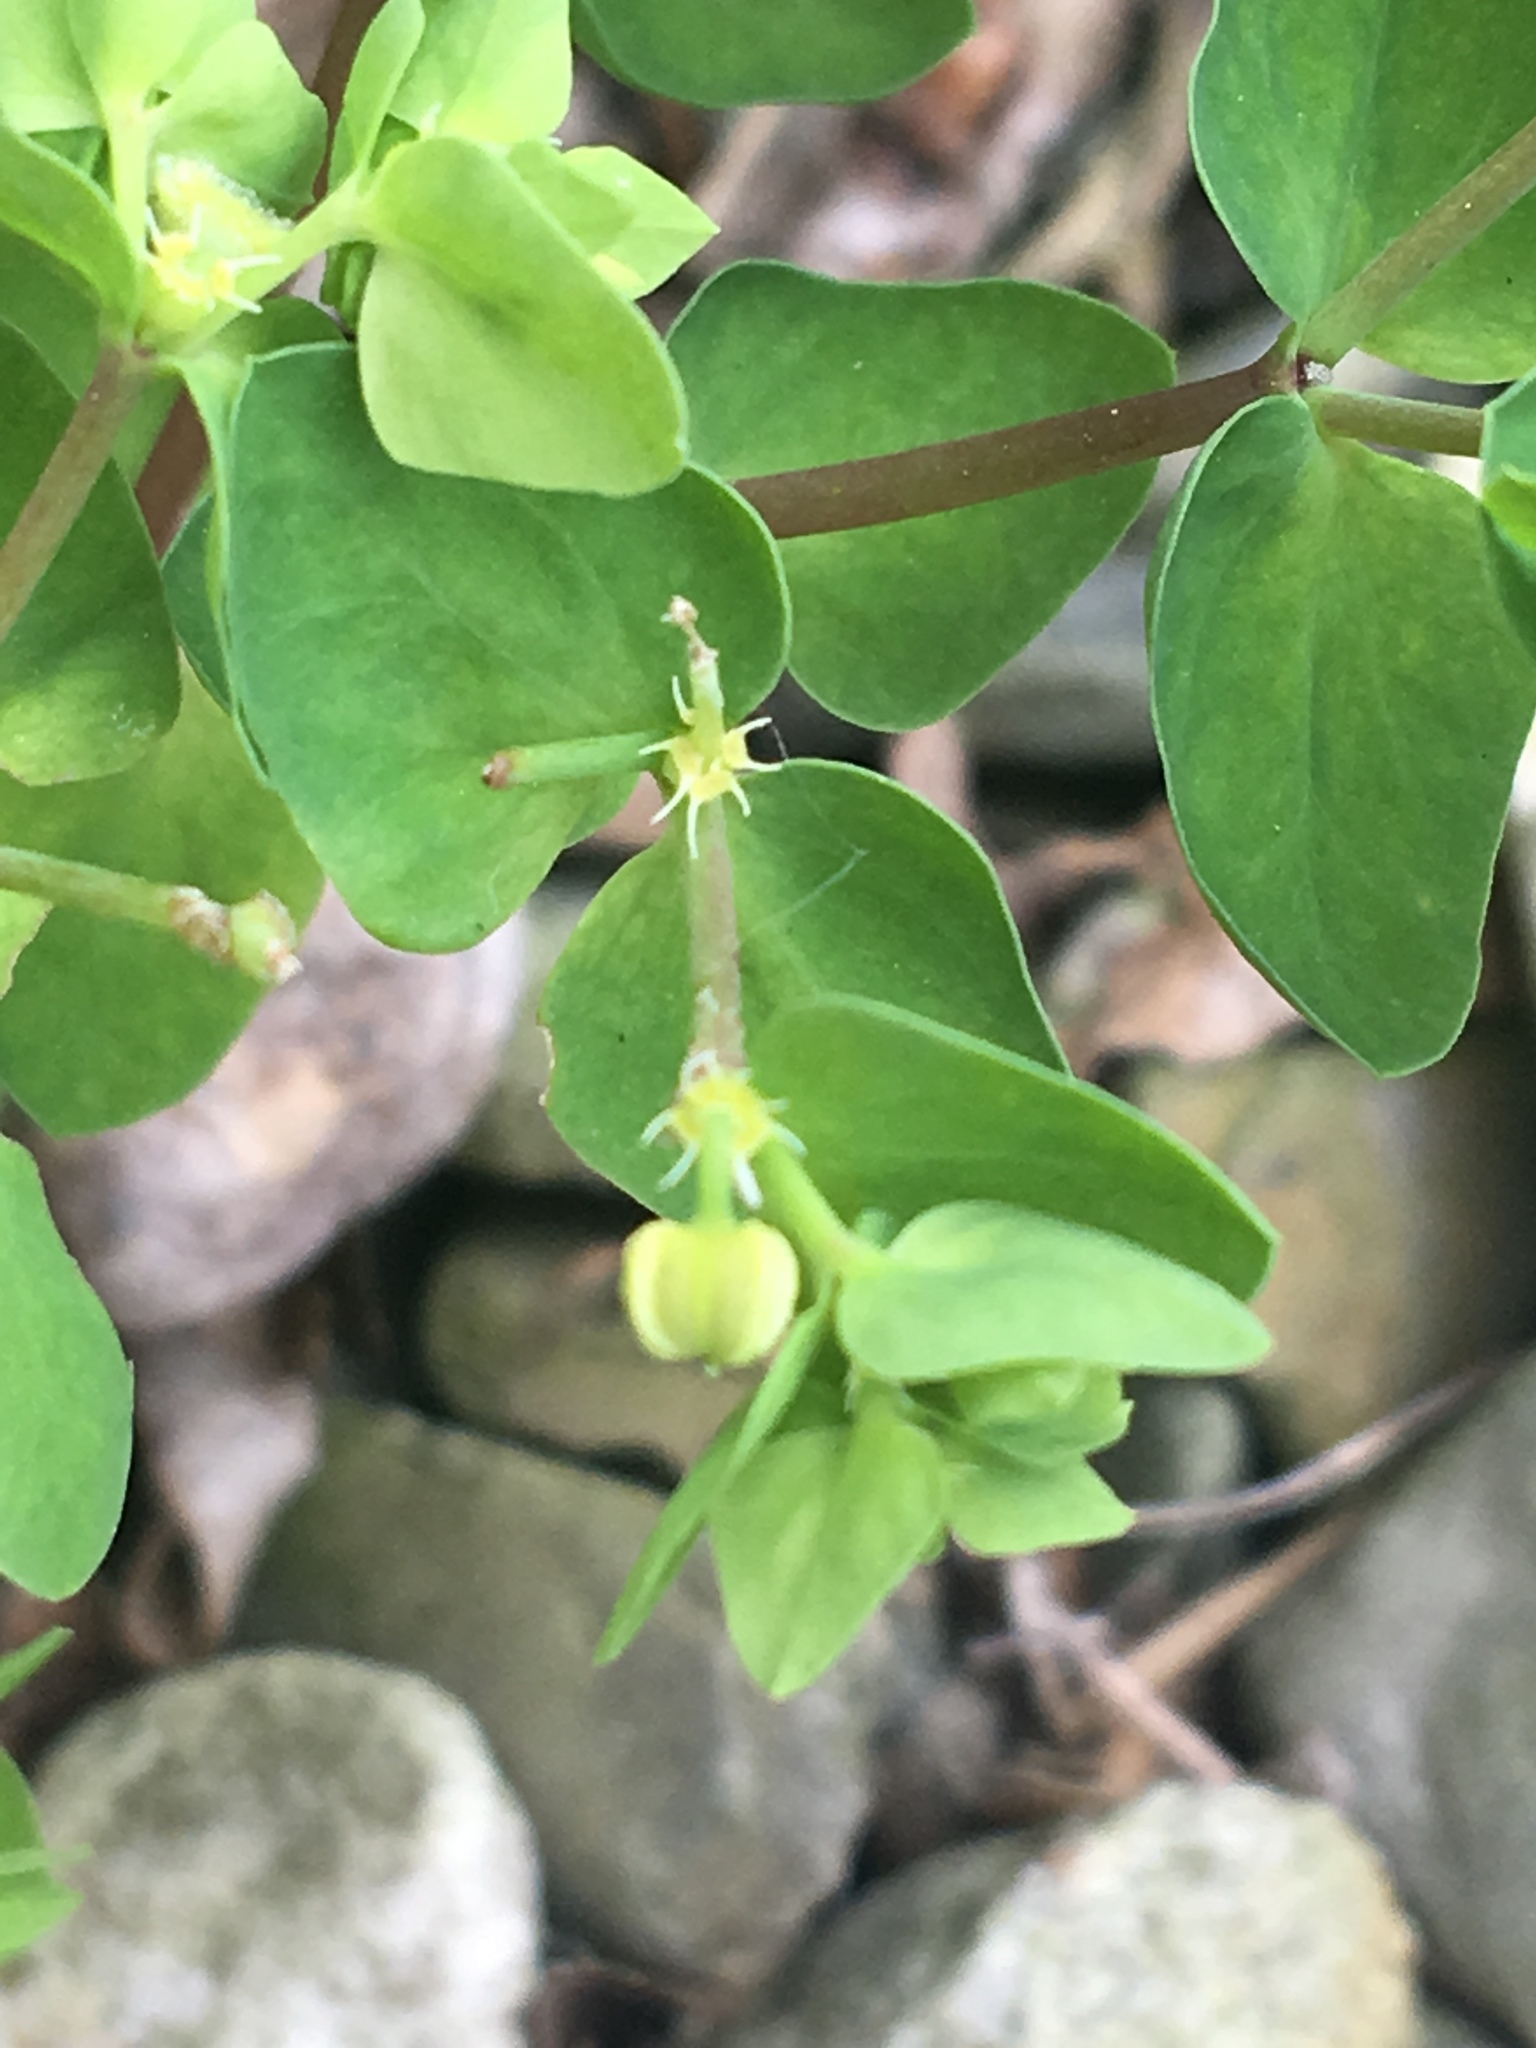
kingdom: Plantae
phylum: Tracheophyta
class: Magnoliopsida
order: Malpighiales
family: Euphorbiaceae
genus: Euphorbia
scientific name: Euphorbia peplus
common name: Petty spurge
